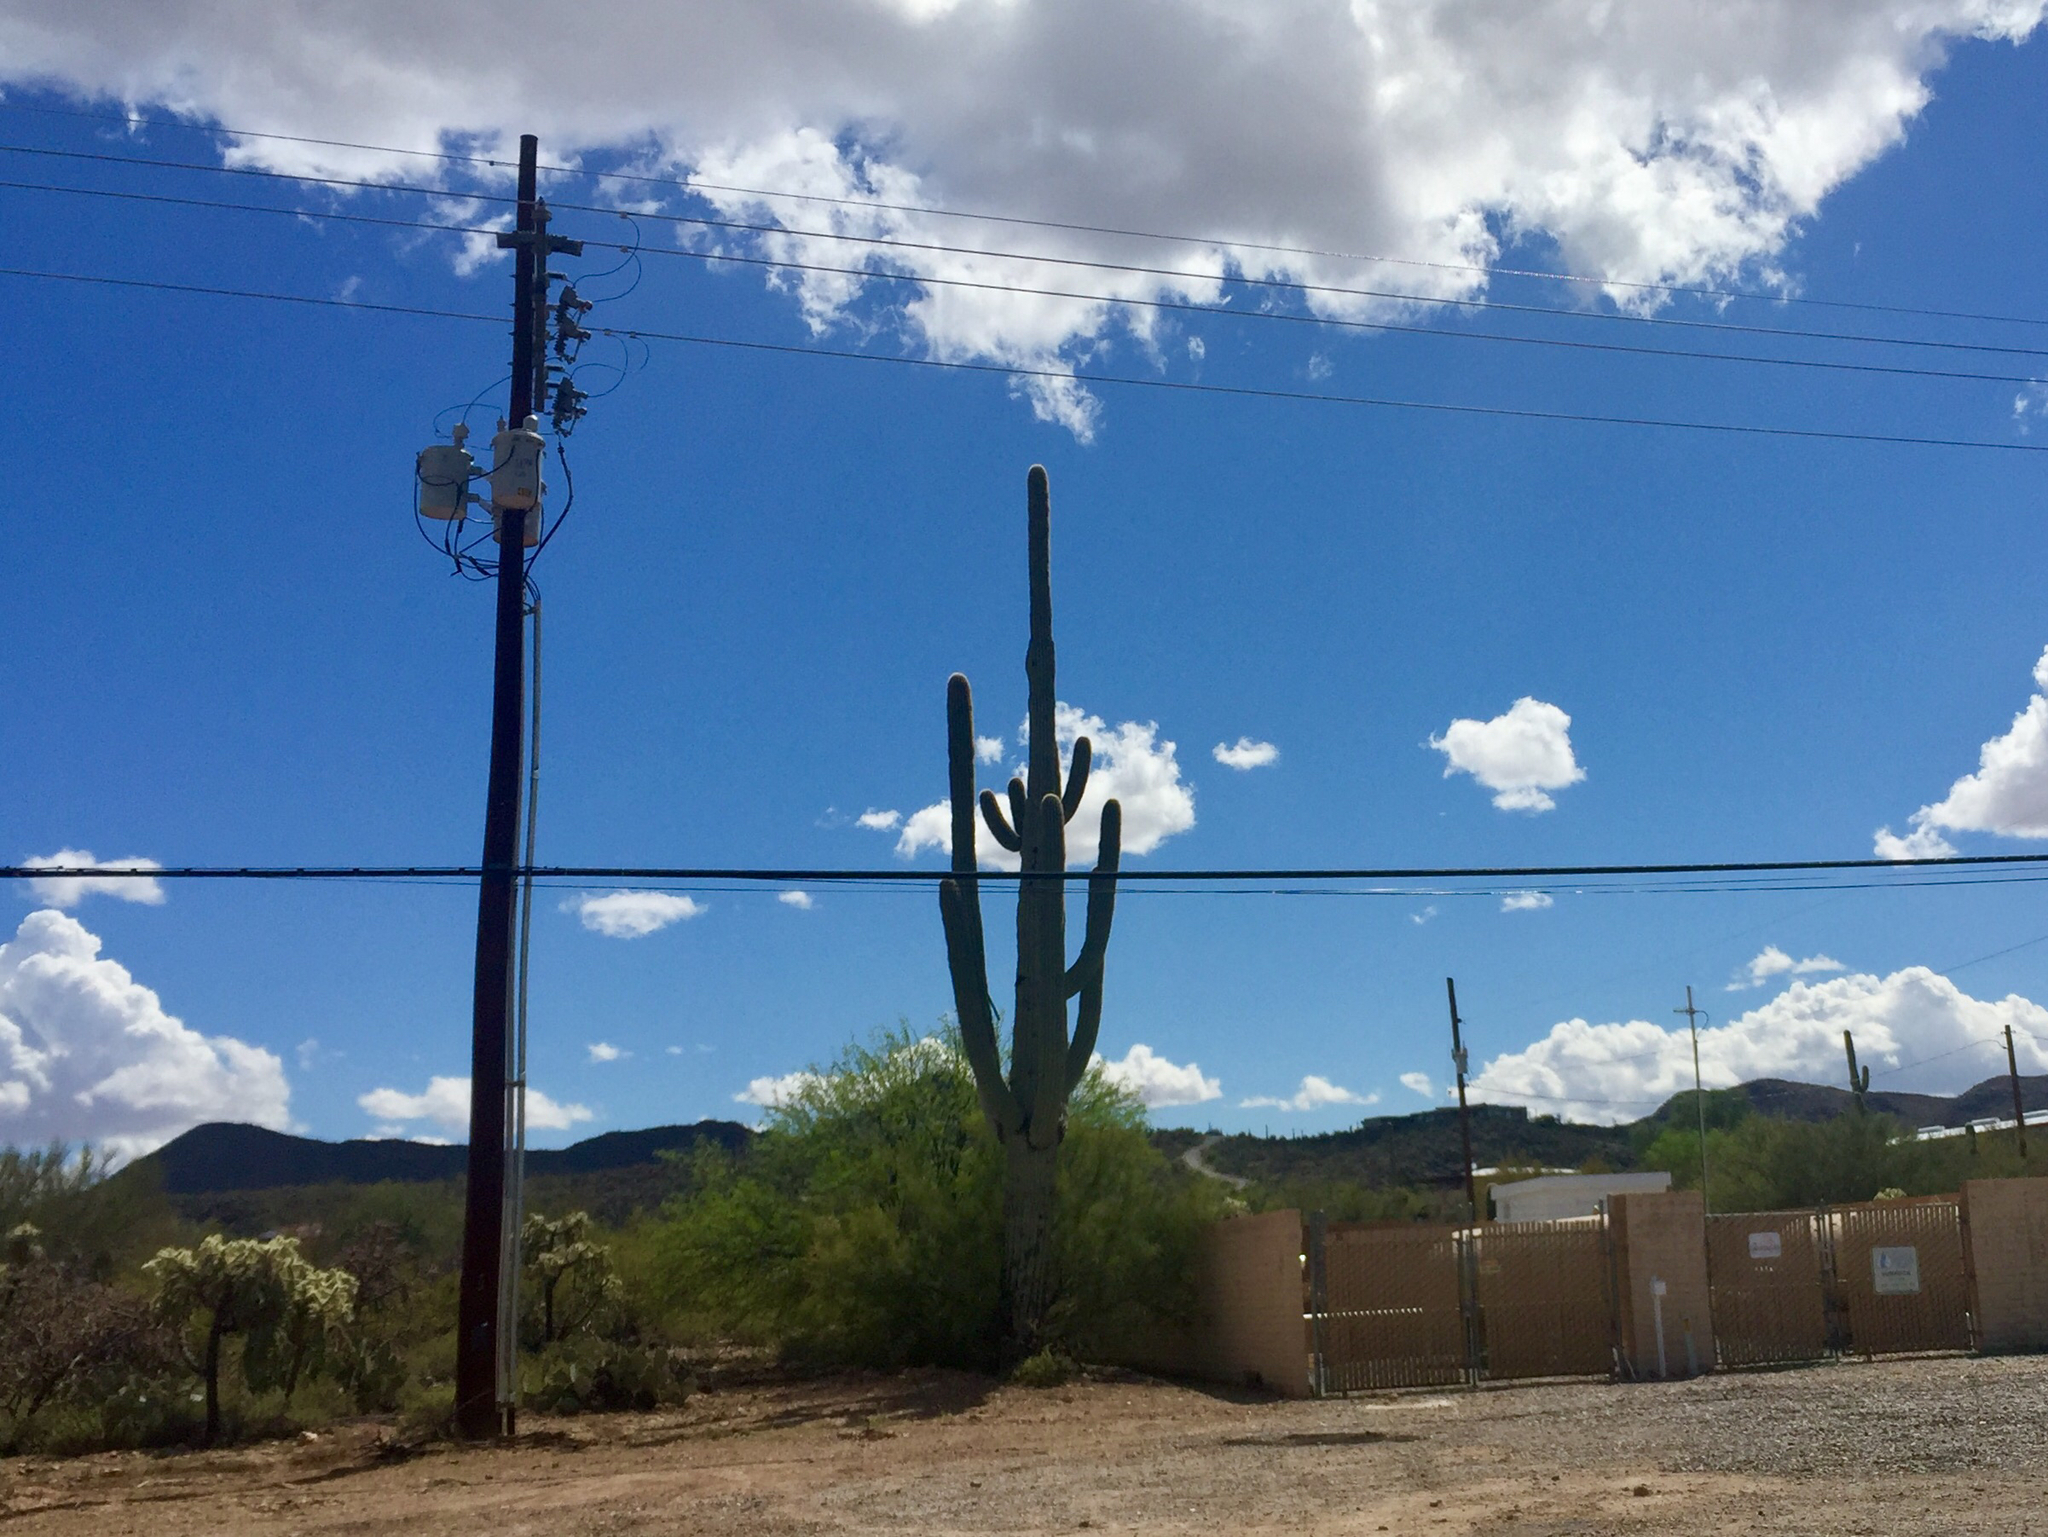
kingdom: Plantae
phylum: Tracheophyta
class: Magnoliopsida
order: Caryophyllales
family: Cactaceae
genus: Carnegiea
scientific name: Carnegiea gigantea
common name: Saguaro
